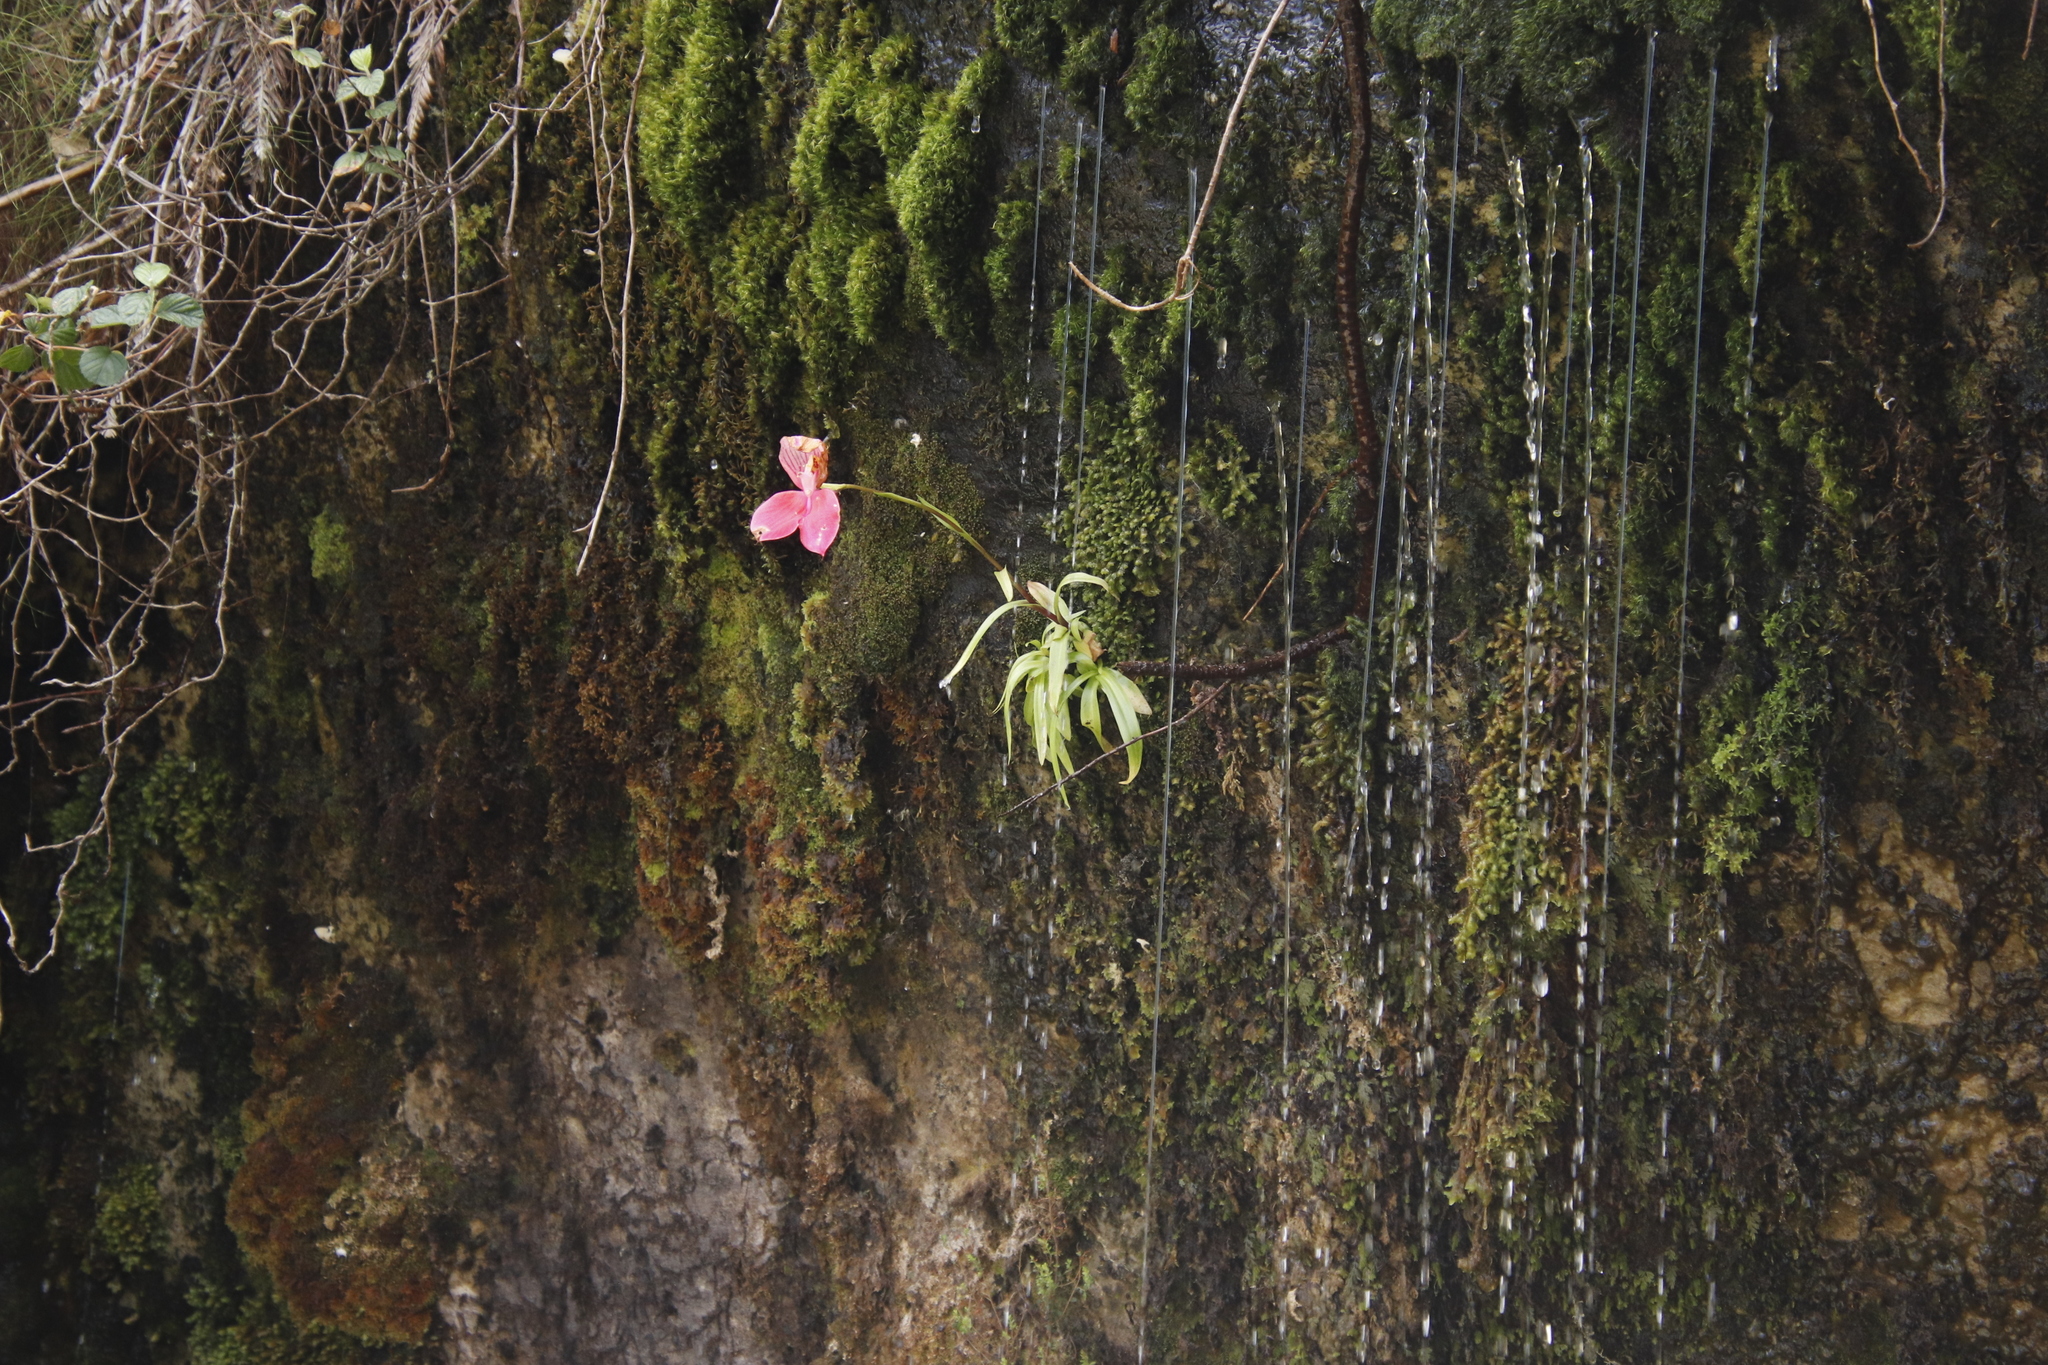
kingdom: Plantae
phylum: Tracheophyta
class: Liliopsida
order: Asparagales
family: Orchidaceae
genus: Disa
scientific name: Disa uniflora
